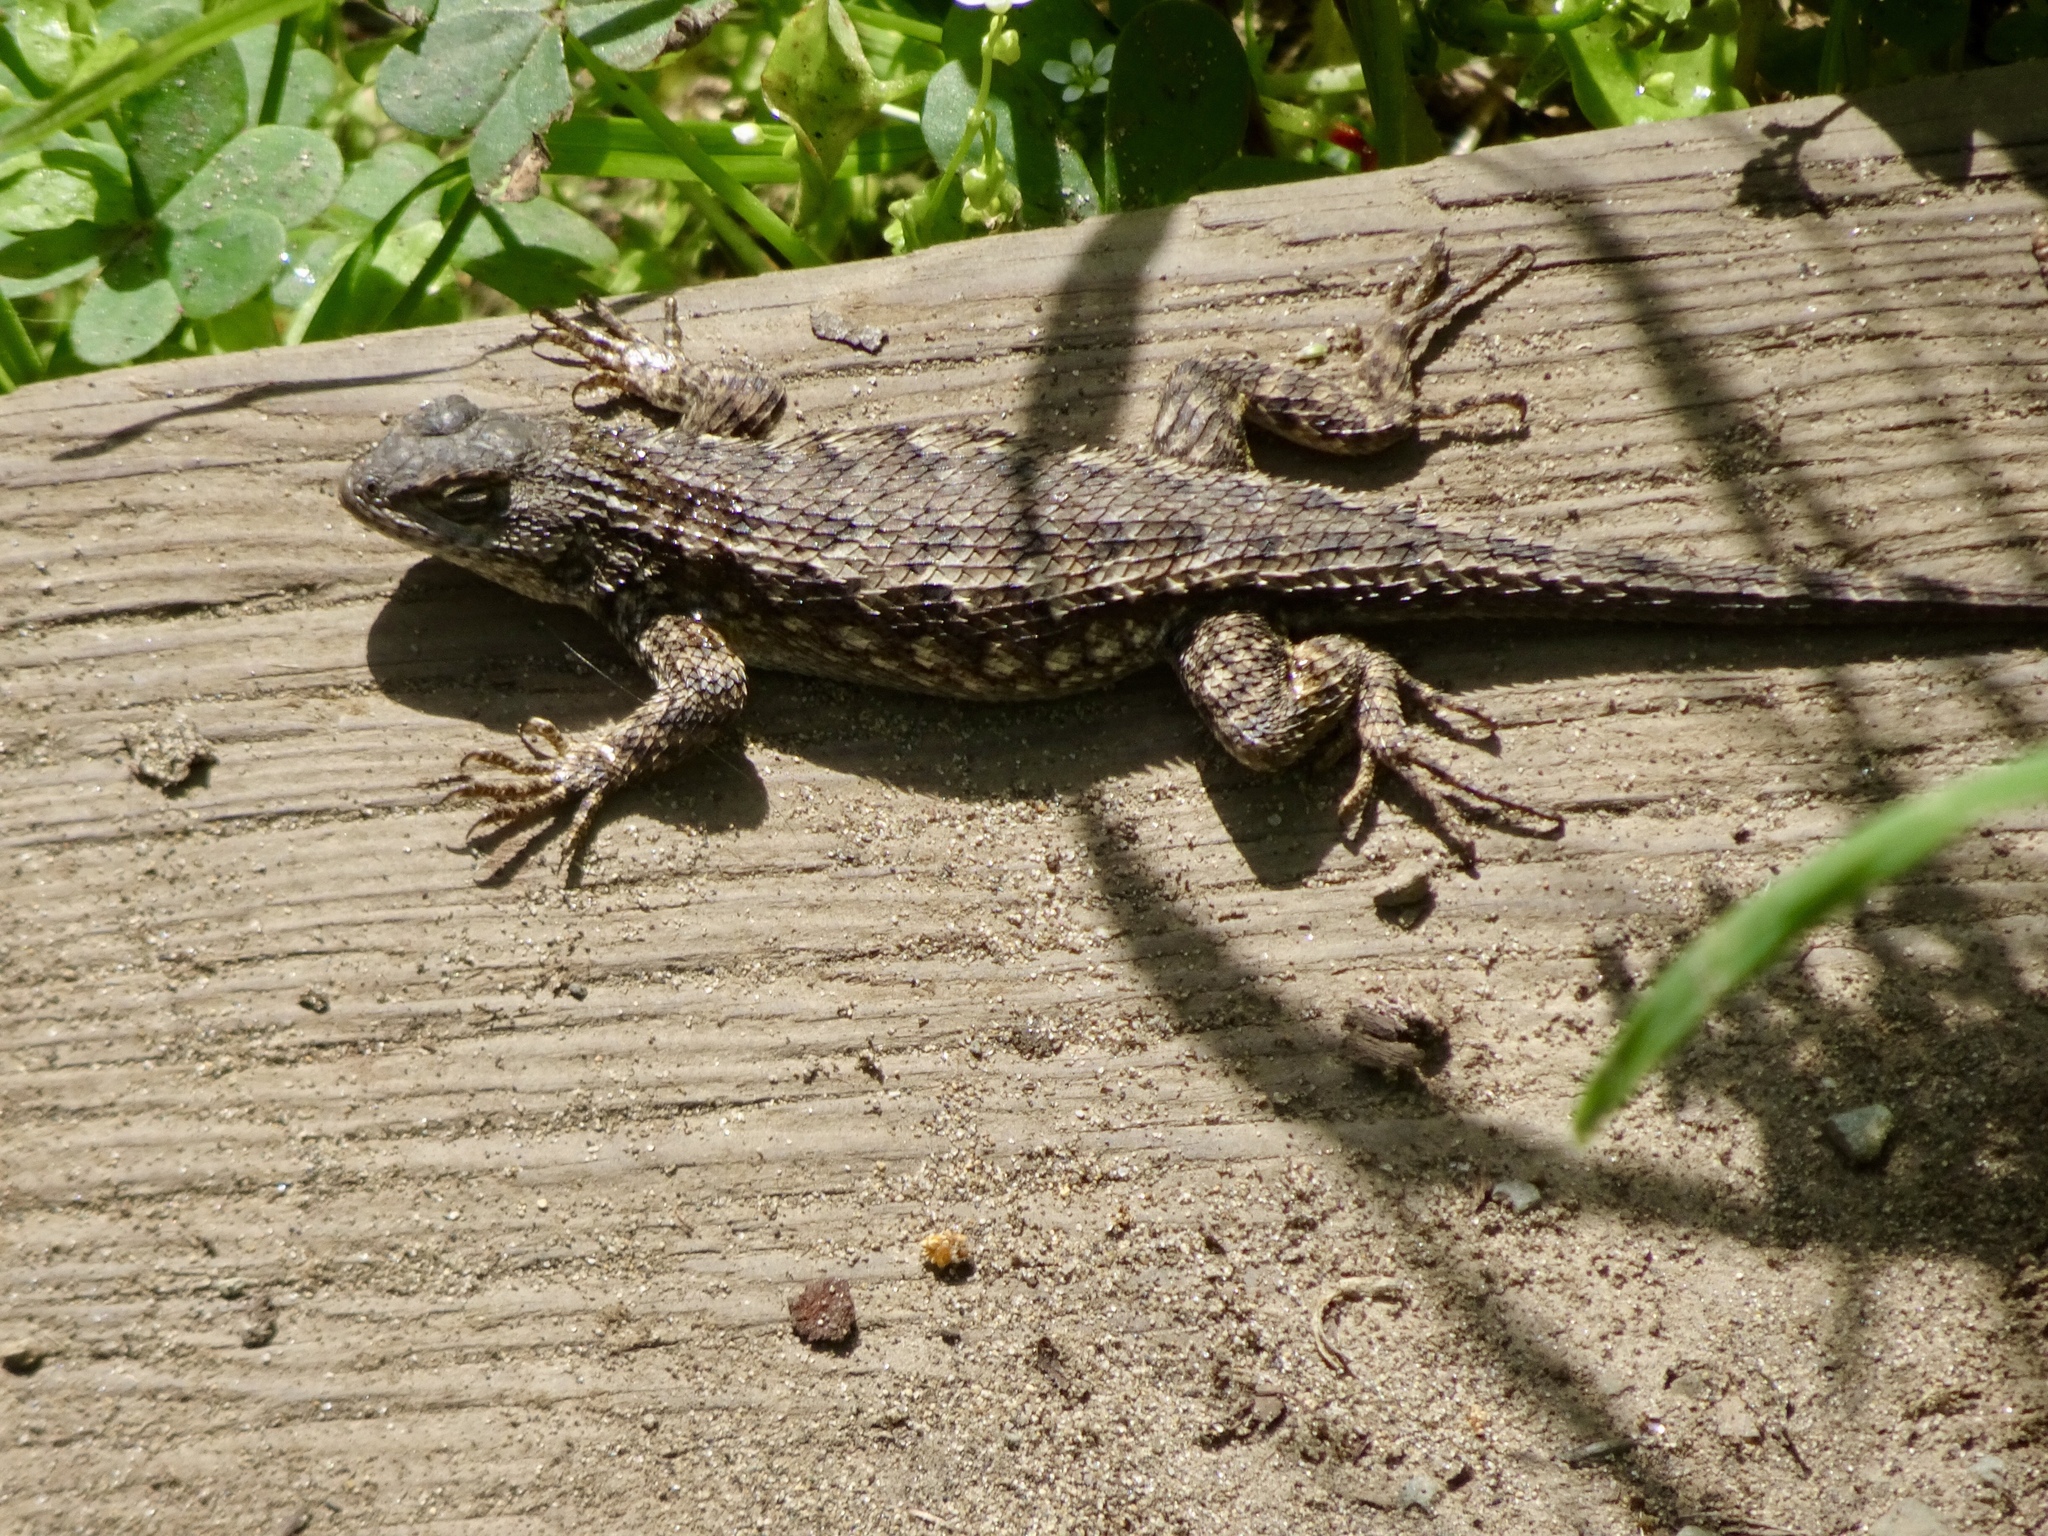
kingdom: Animalia
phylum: Chordata
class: Squamata
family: Phrynosomatidae
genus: Sceloporus
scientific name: Sceloporus occidentalis
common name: Western fence lizard
